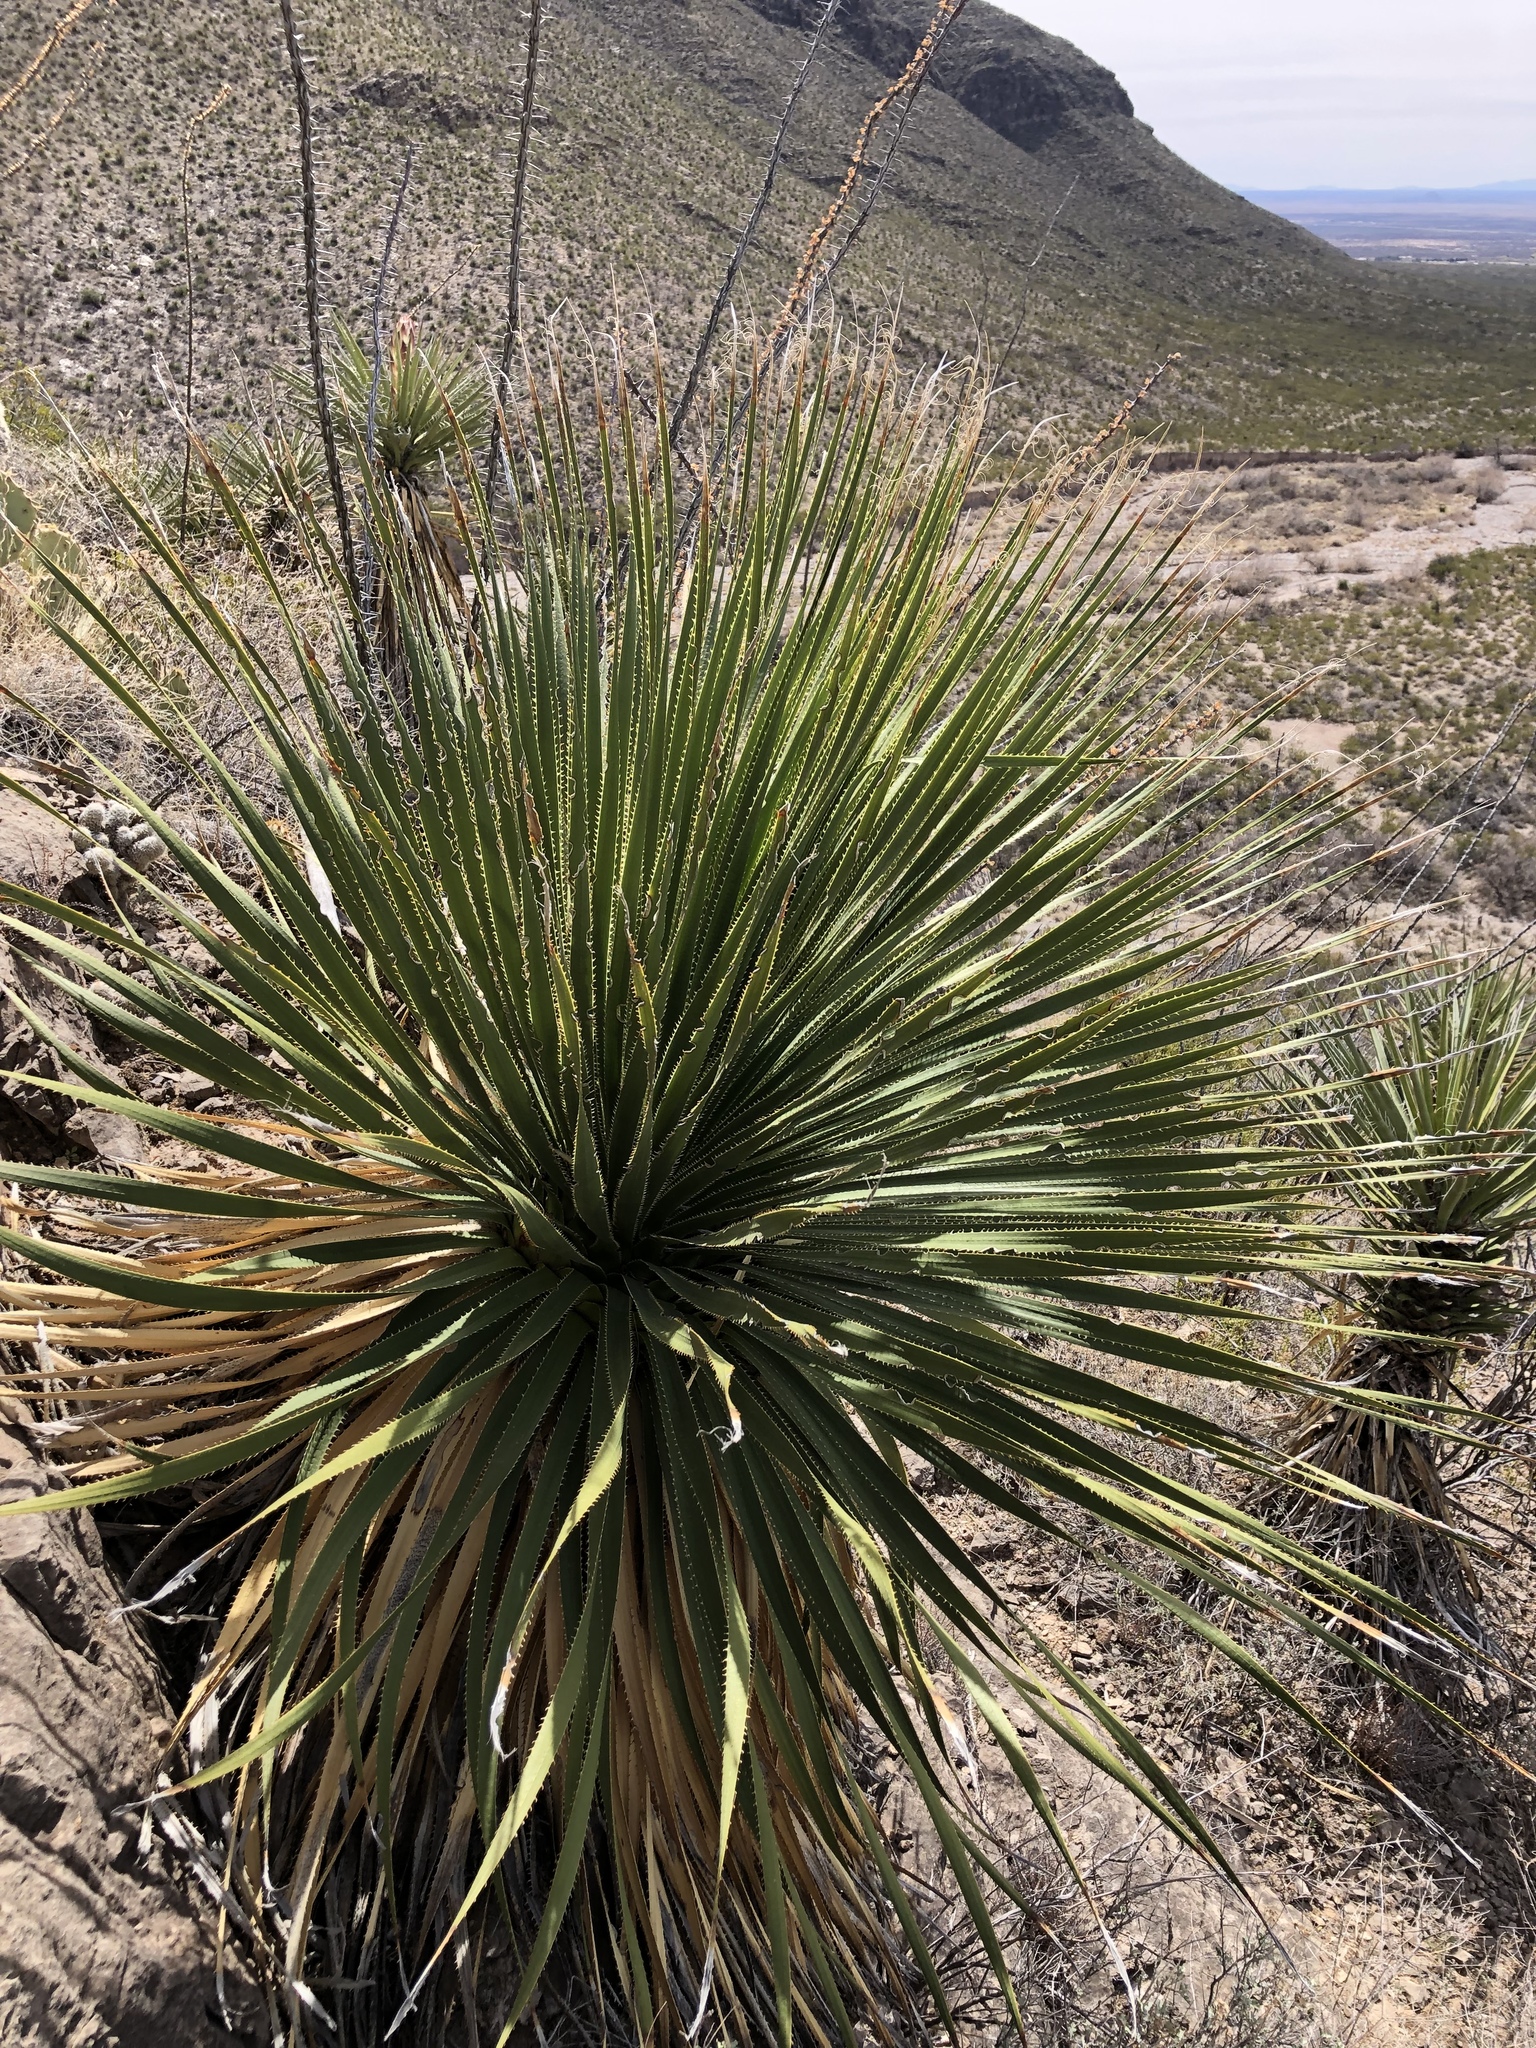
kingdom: Plantae
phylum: Tracheophyta
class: Liliopsida
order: Asparagales
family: Asparagaceae
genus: Dasylirion
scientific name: Dasylirion wheeleri
